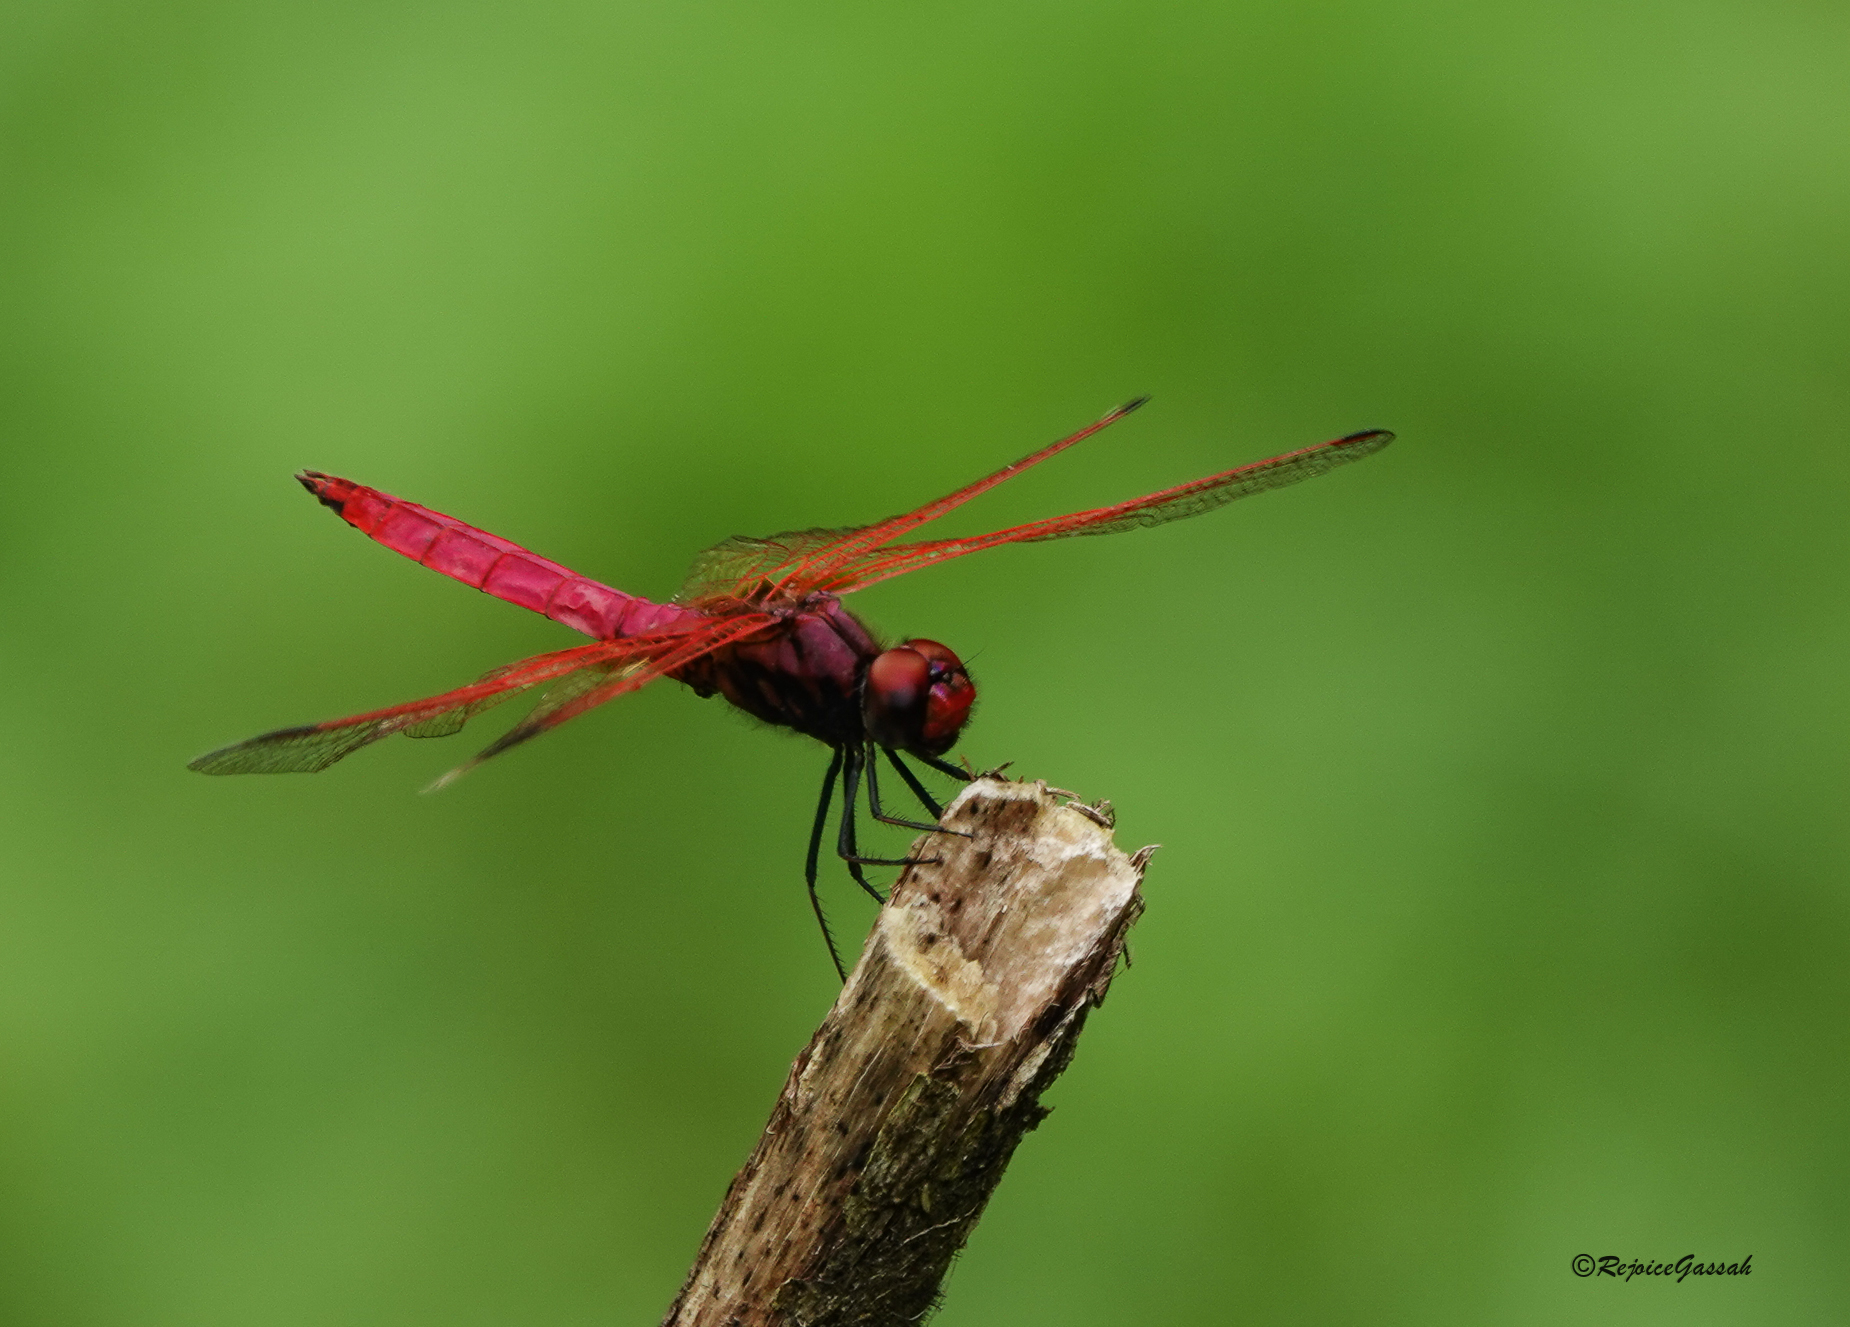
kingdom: Animalia
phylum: Arthropoda
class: Insecta
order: Odonata
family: Libellulidae
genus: Trithemis
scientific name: Trithemis aurora
